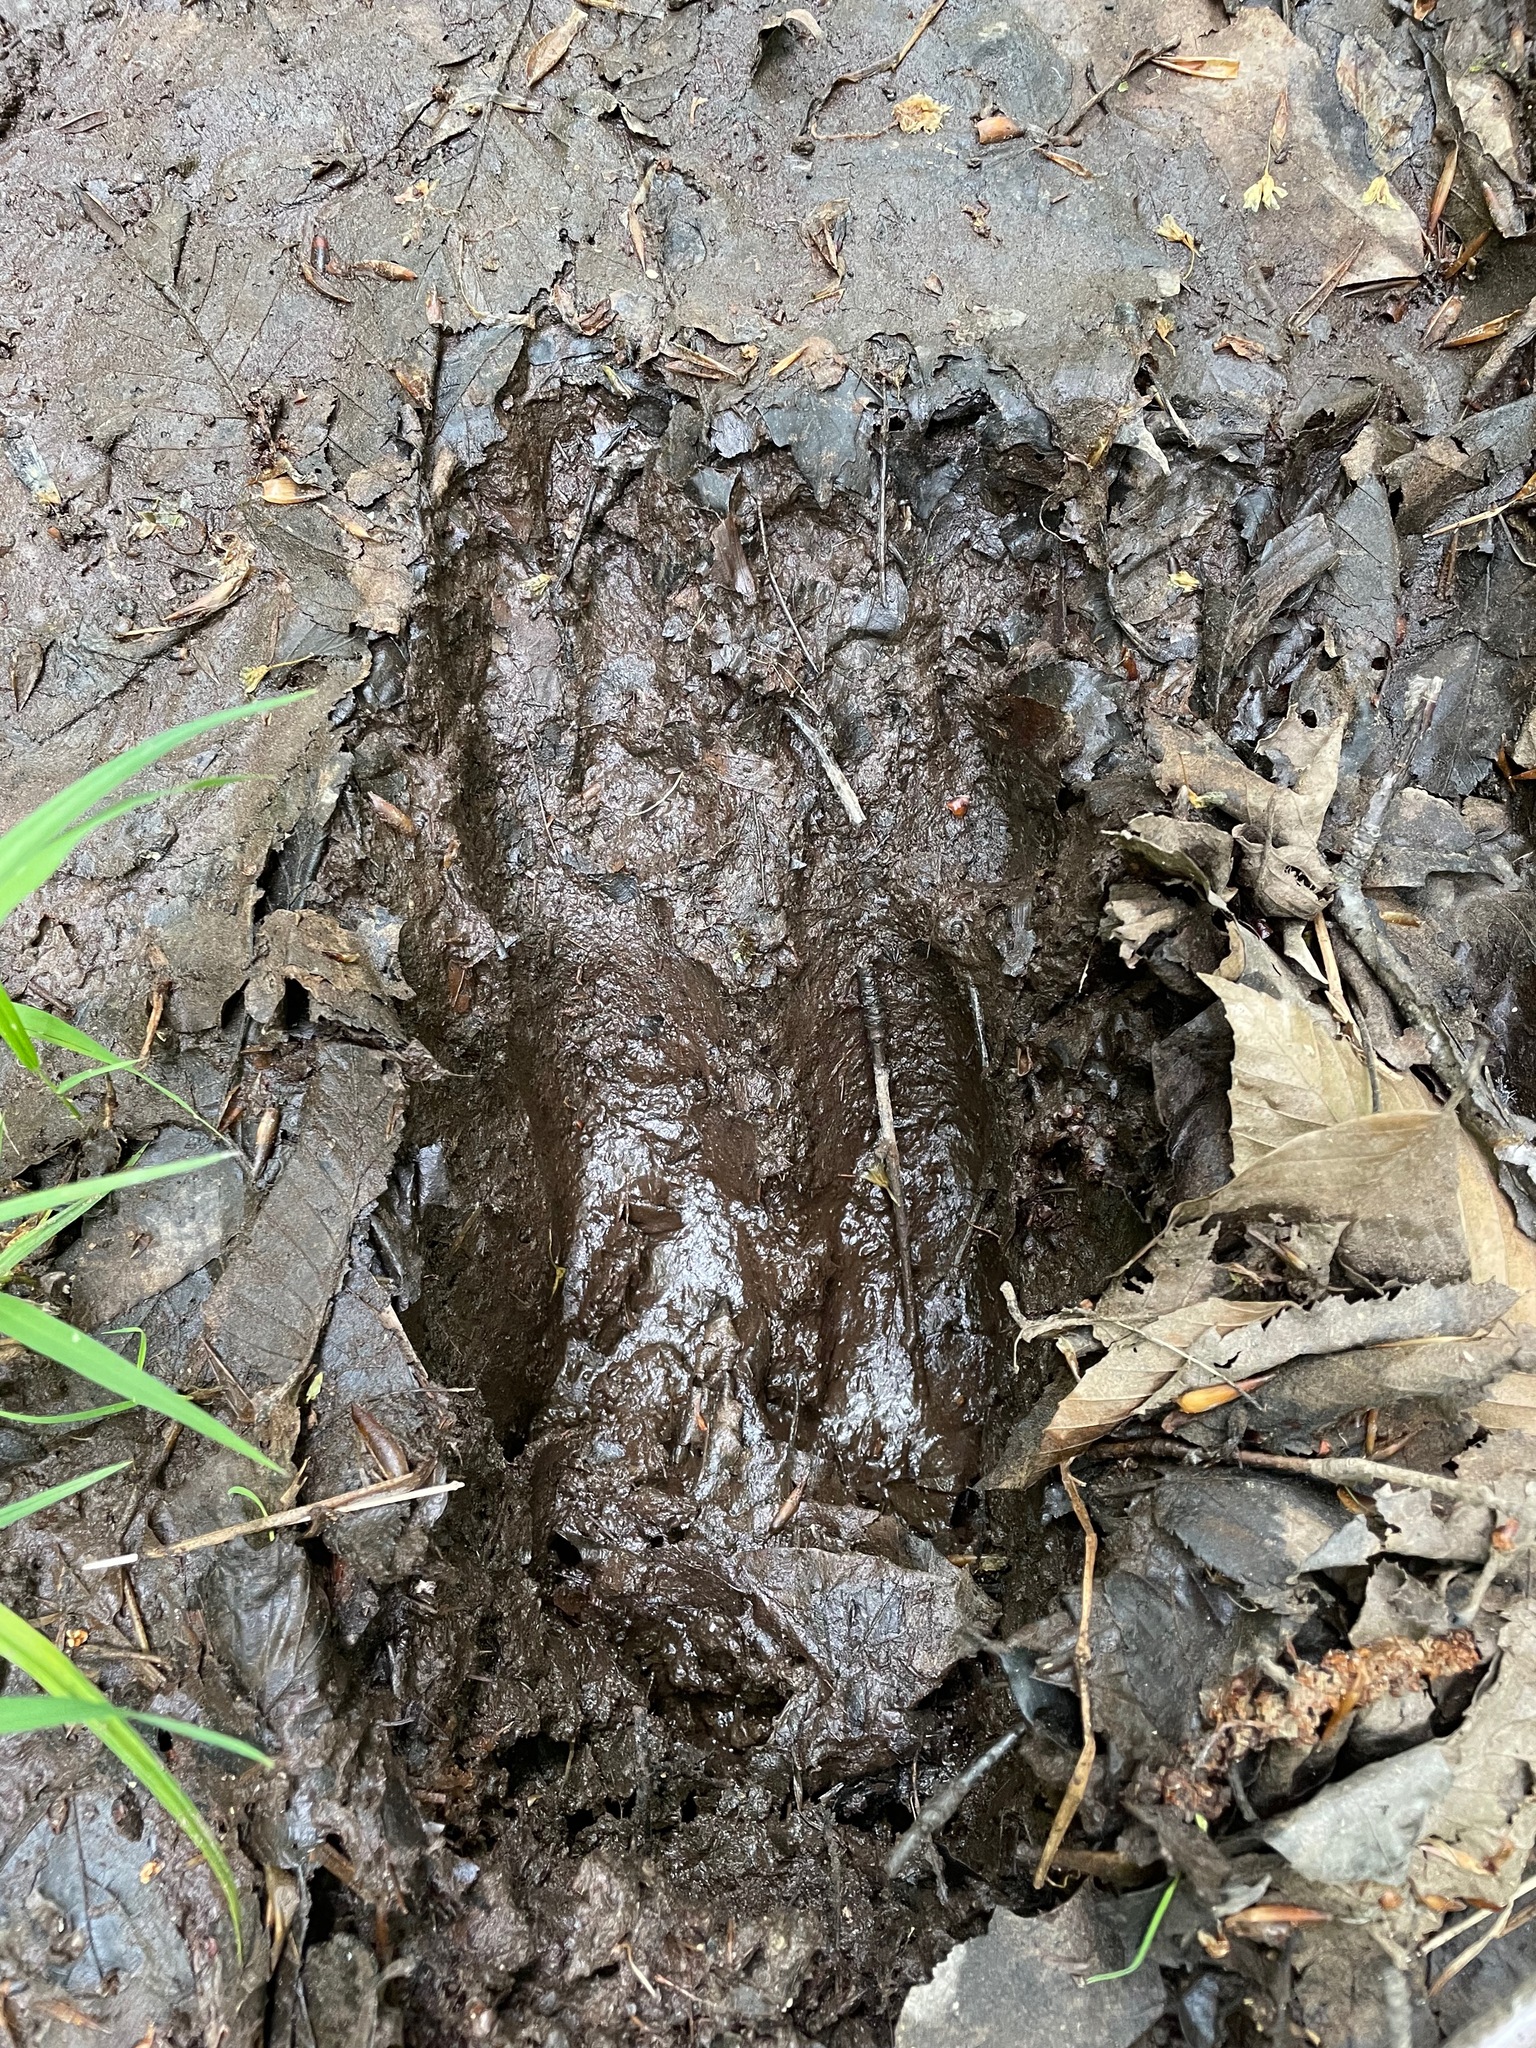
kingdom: Animalia
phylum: Chordata
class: Mammalia
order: Artiodactyla
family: Cervidae
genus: Alces
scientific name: Alces alces
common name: Moose
